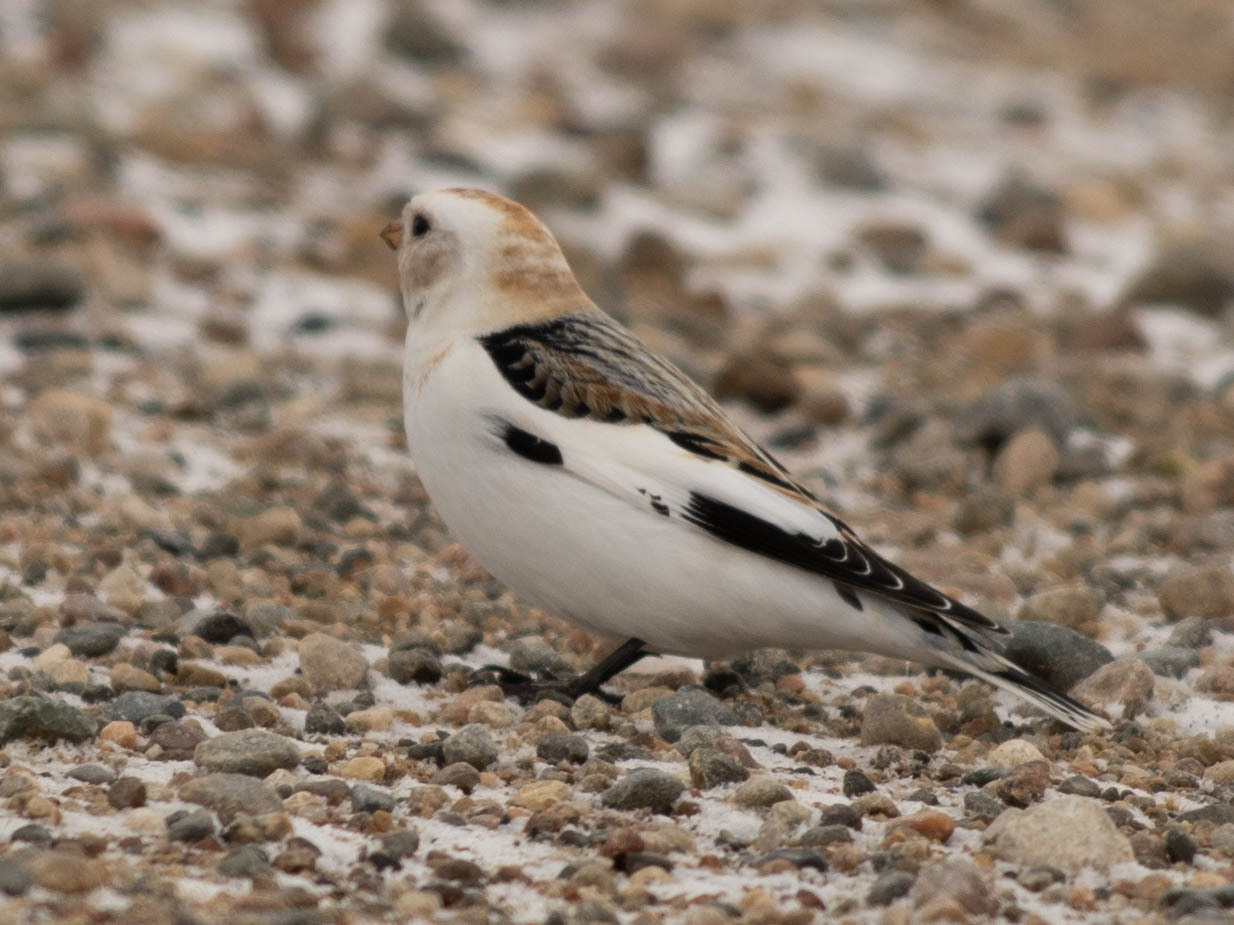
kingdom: Animalia
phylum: Chordata
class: Aves
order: Passeriformes
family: Calcariidae
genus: Plectrophenax
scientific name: Plectrophenax nivalis
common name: Snow bunting
